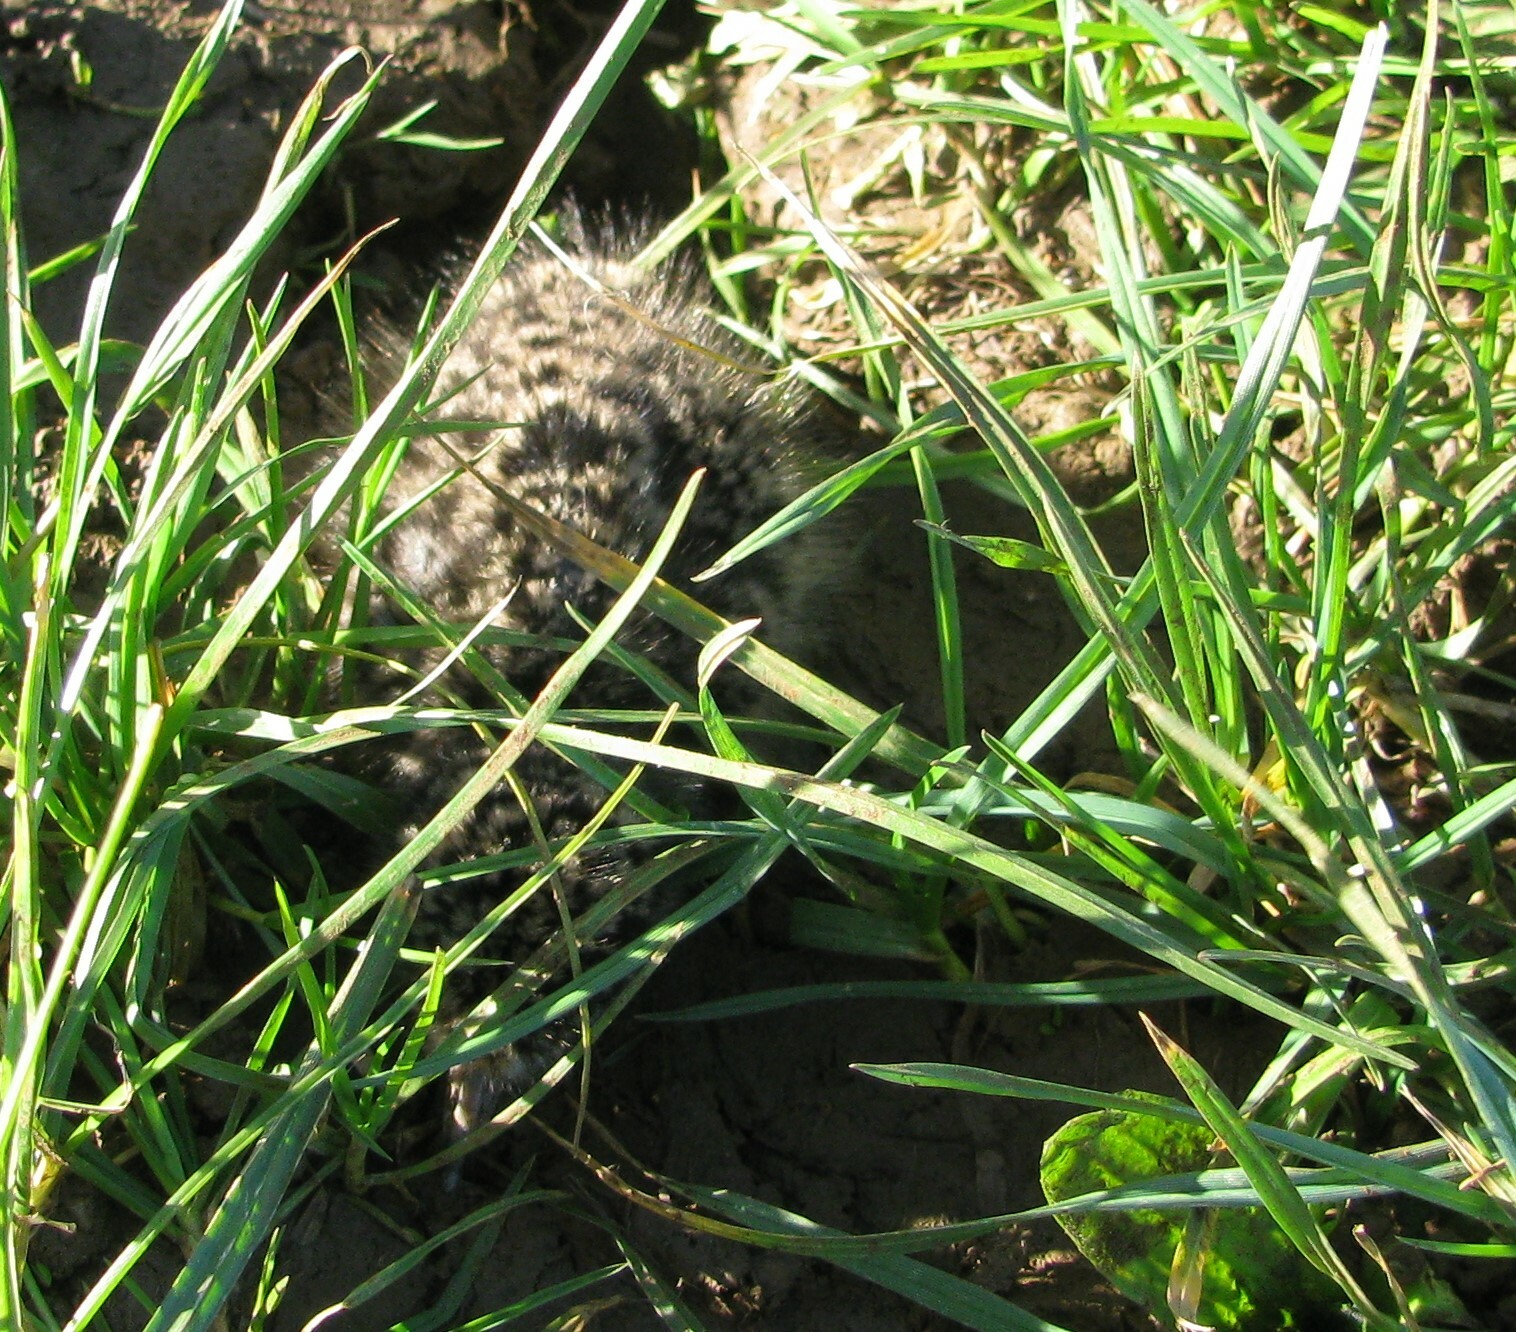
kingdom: Animalia
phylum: Chordata
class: Aves
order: Charadriiformes
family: Charadriidae
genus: Vanellus
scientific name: Vanellus miles
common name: Masked lapwing
